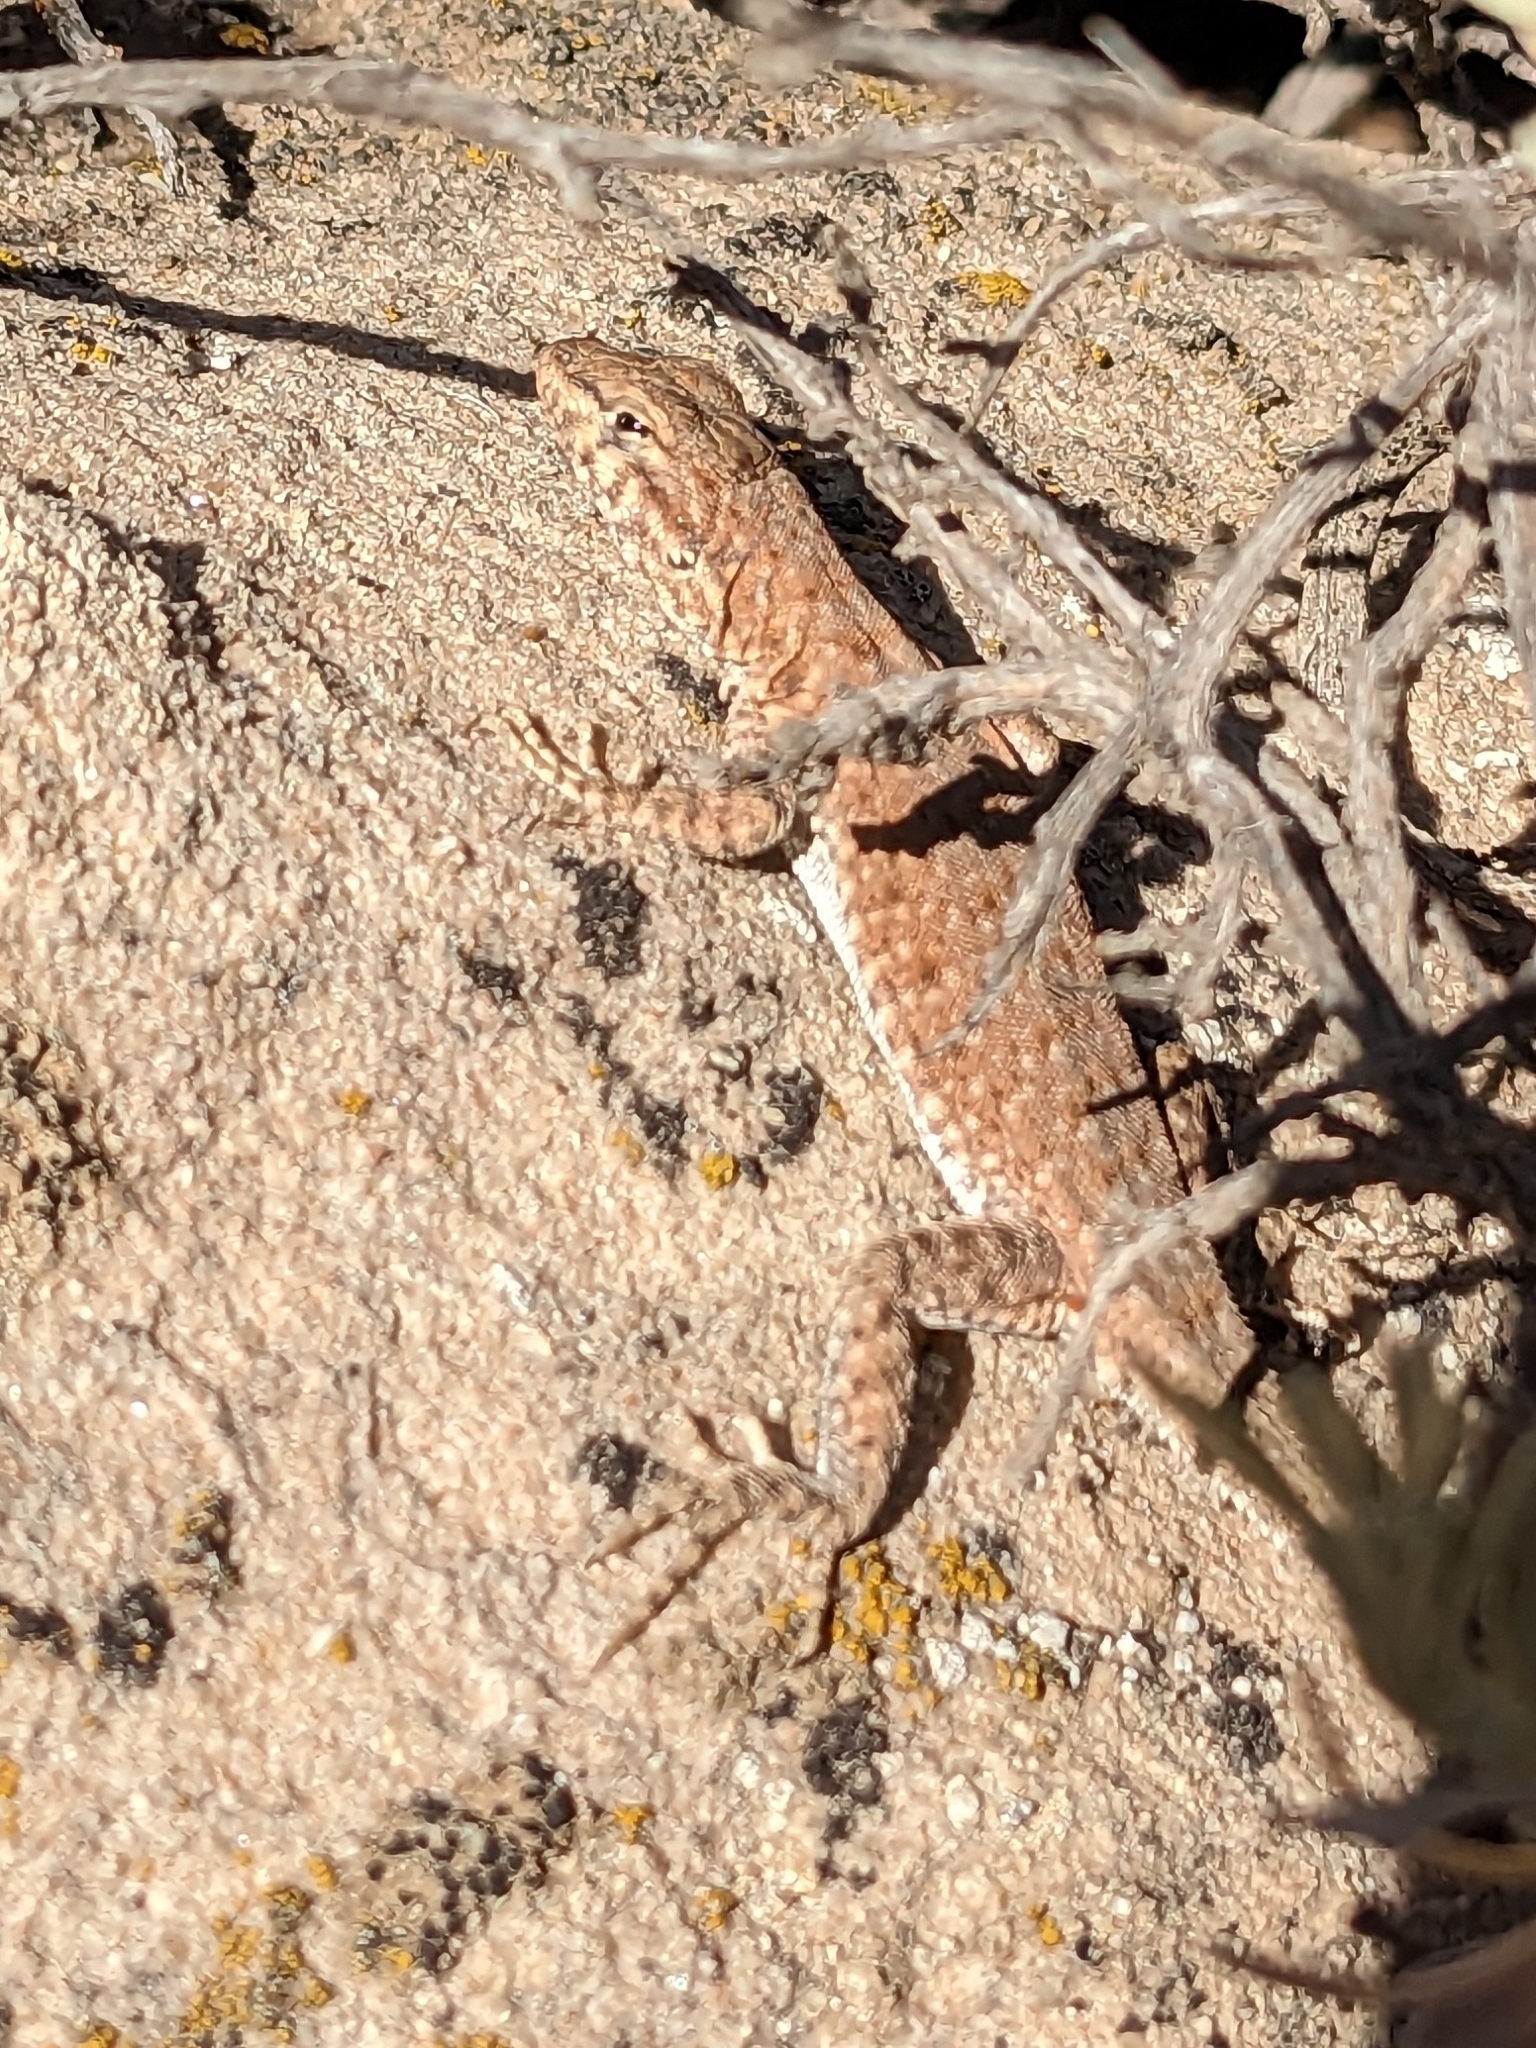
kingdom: Animalia
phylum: Chordata
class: Squamata
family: Phrynosomatidae
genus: Uta
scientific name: Uta stansburiana
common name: Side-blotched lizard
